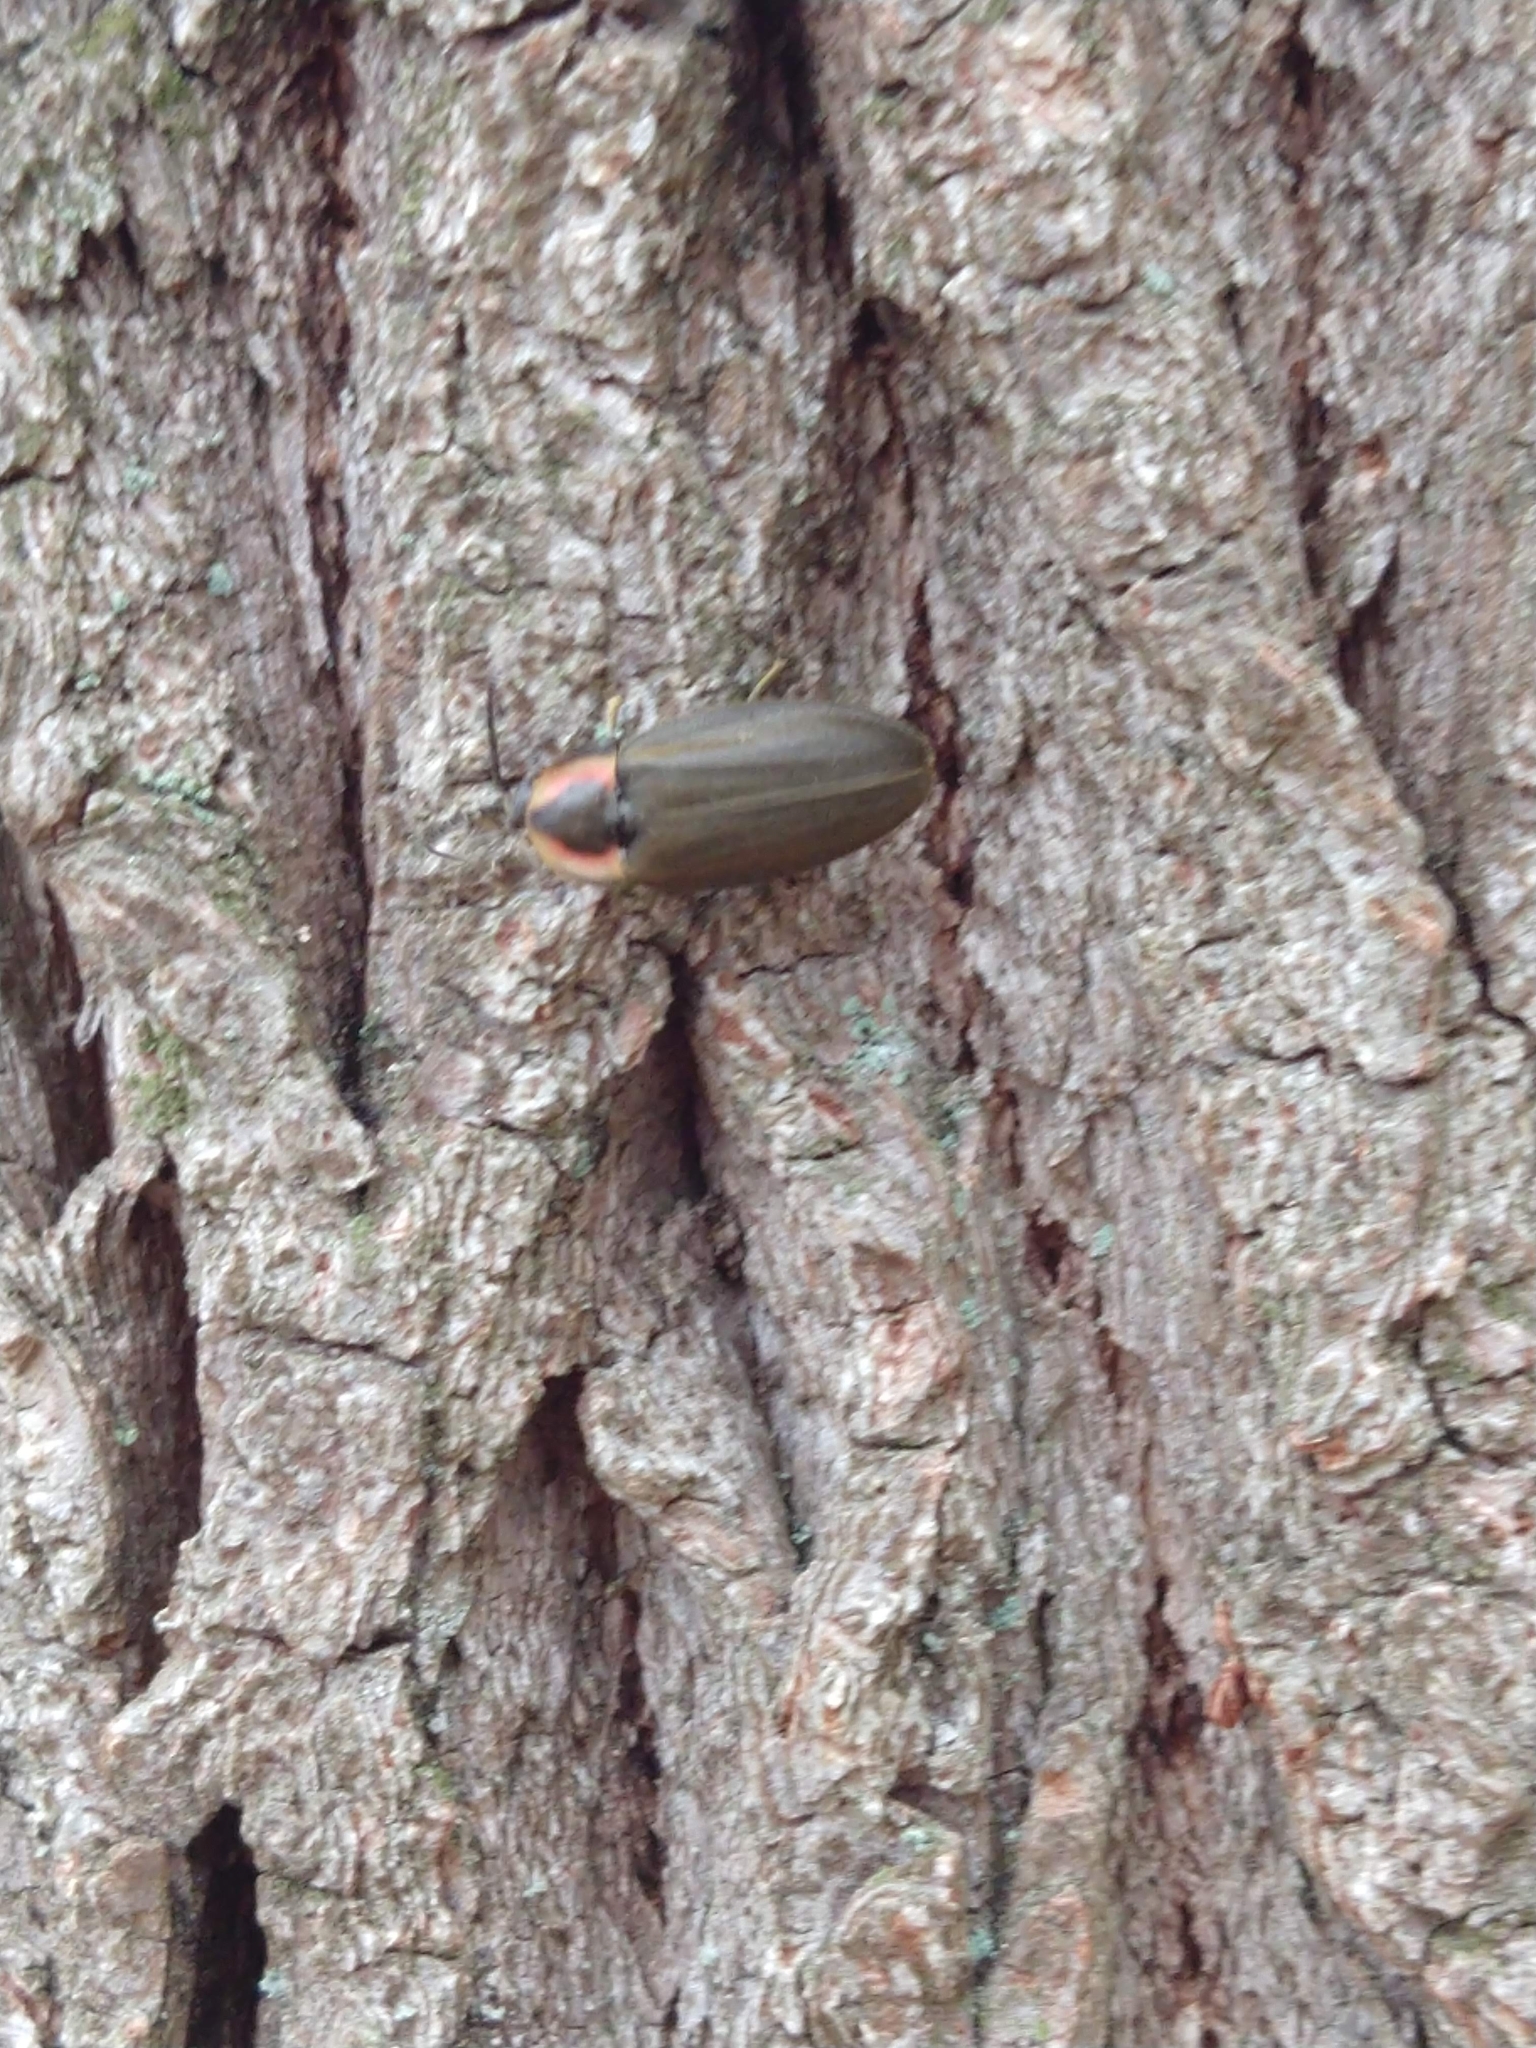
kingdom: Animalia
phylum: Arthropoda
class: Insecta
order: Coleoptera
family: Lampyridae
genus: Photinus
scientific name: Photinus corrusca
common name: Winter firefly
